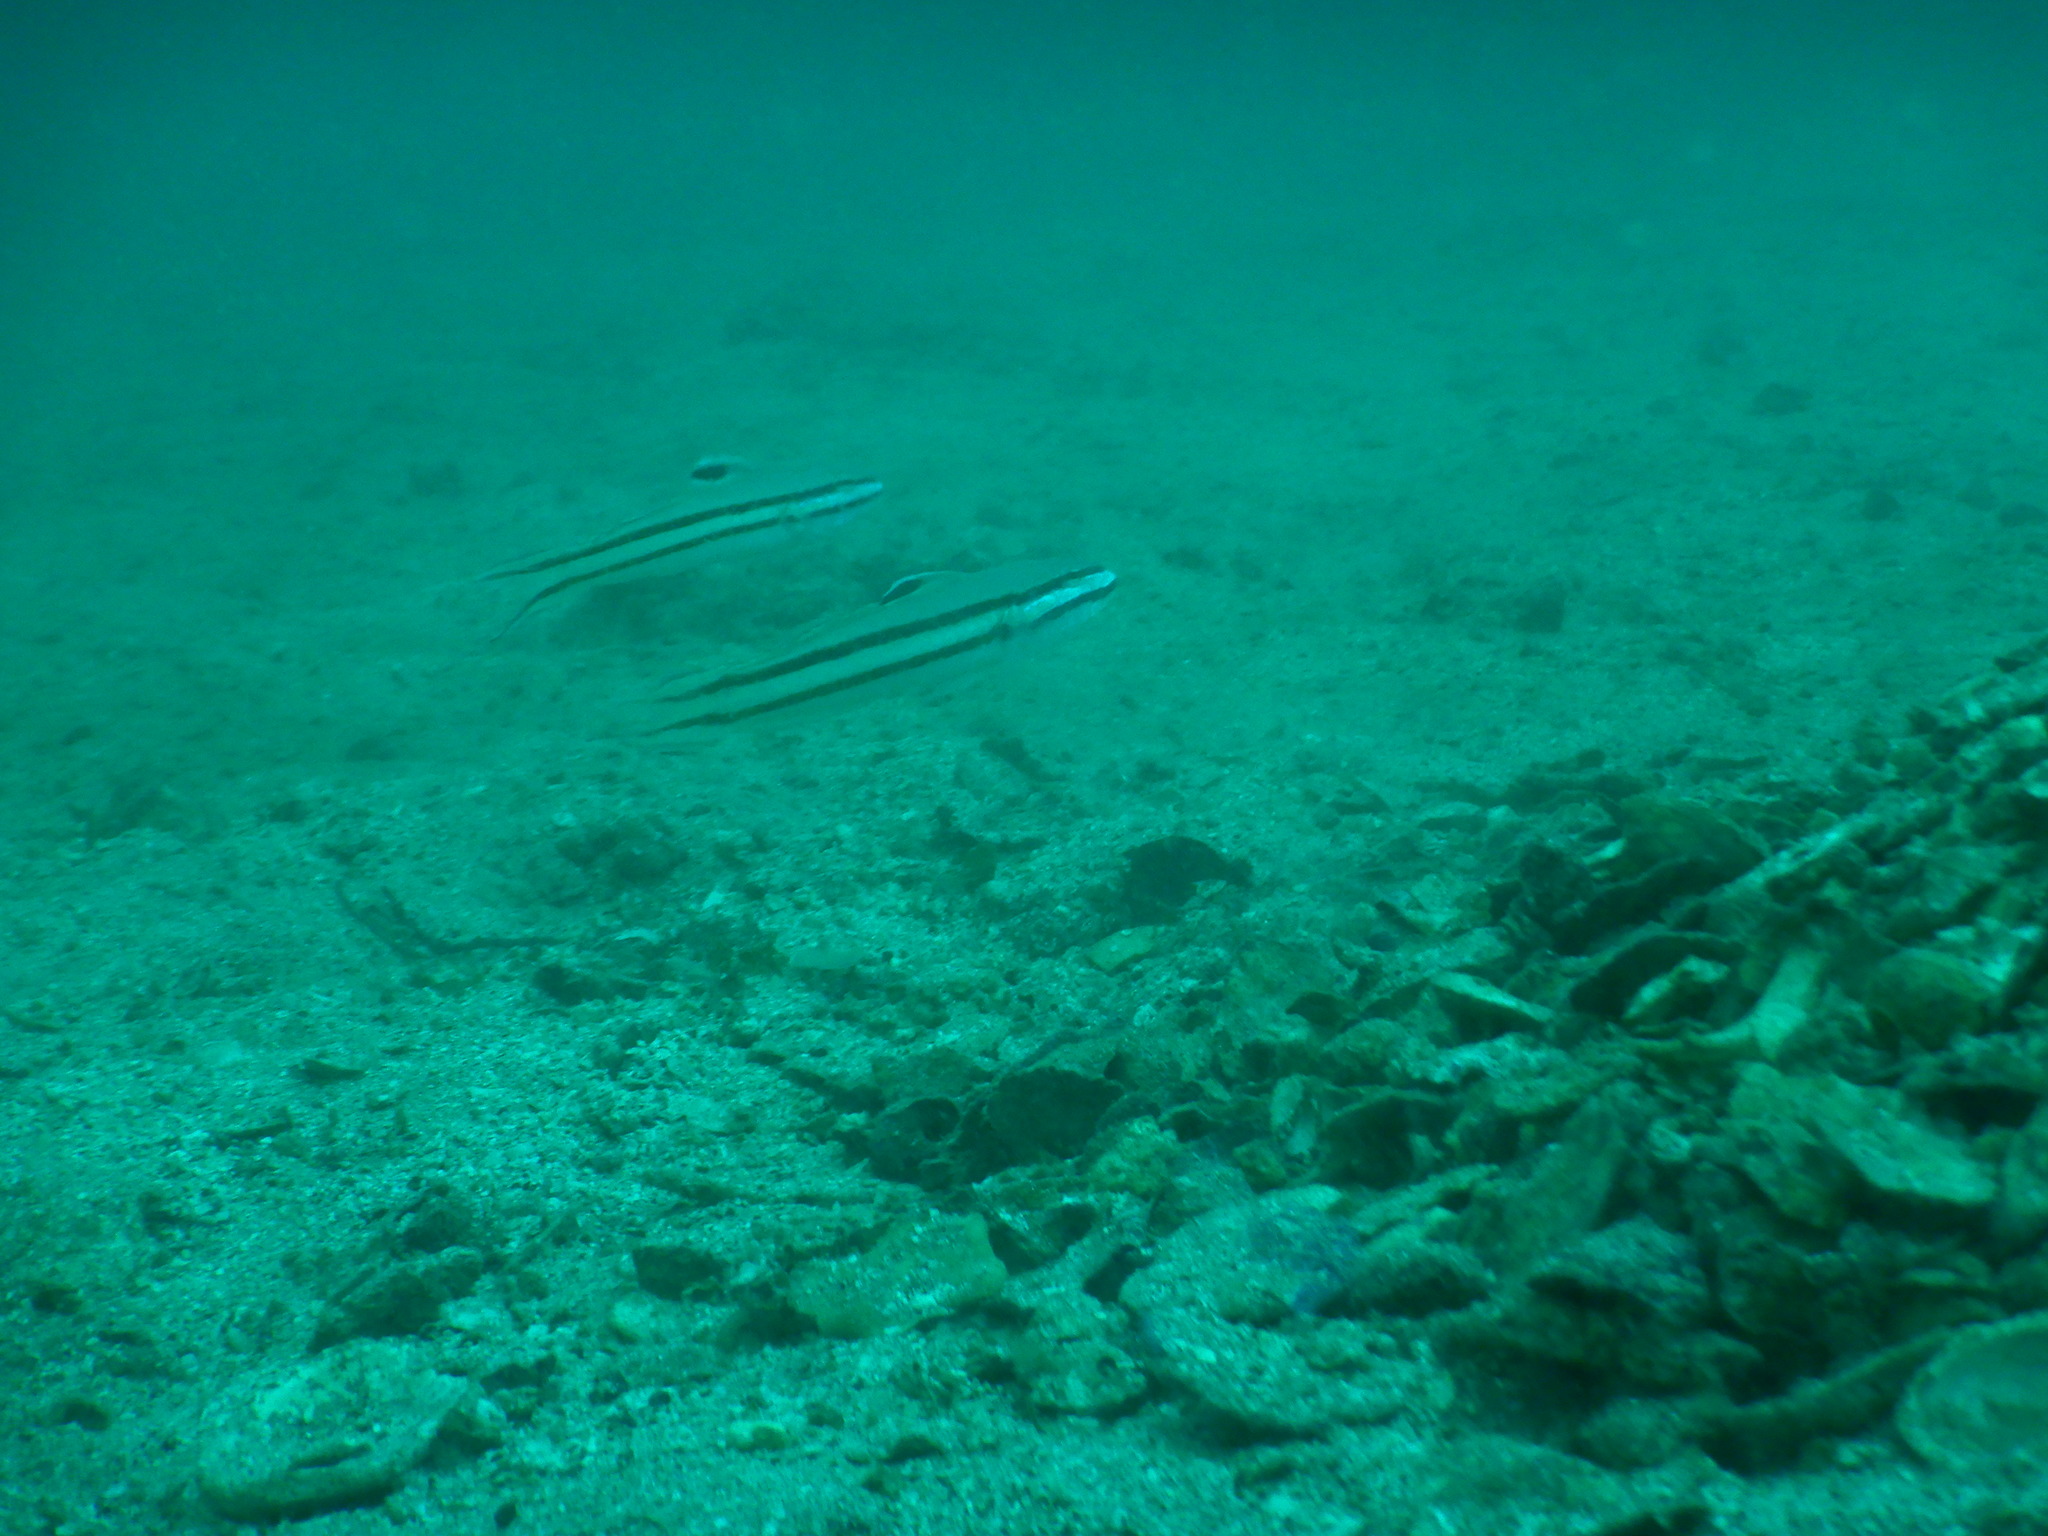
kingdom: Animalia
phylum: Chordata
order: Perciformes
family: Gobiidae
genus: Valenciennea
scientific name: Valenciennea helsdingenii
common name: Twostripe goby
